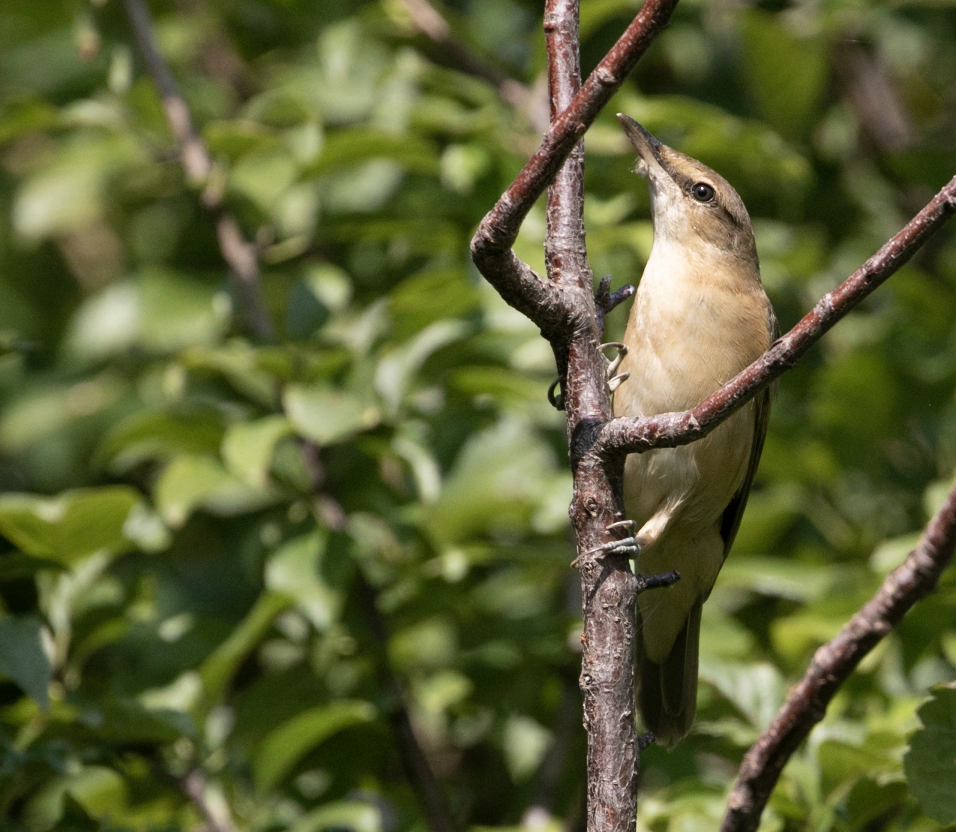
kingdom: Animalia
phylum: Chordata
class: Aves
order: Passeriformes
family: Acrocephalidae
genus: Acrocephalus
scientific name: Acrocephalus arundinaceus
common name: Great reed warbler
